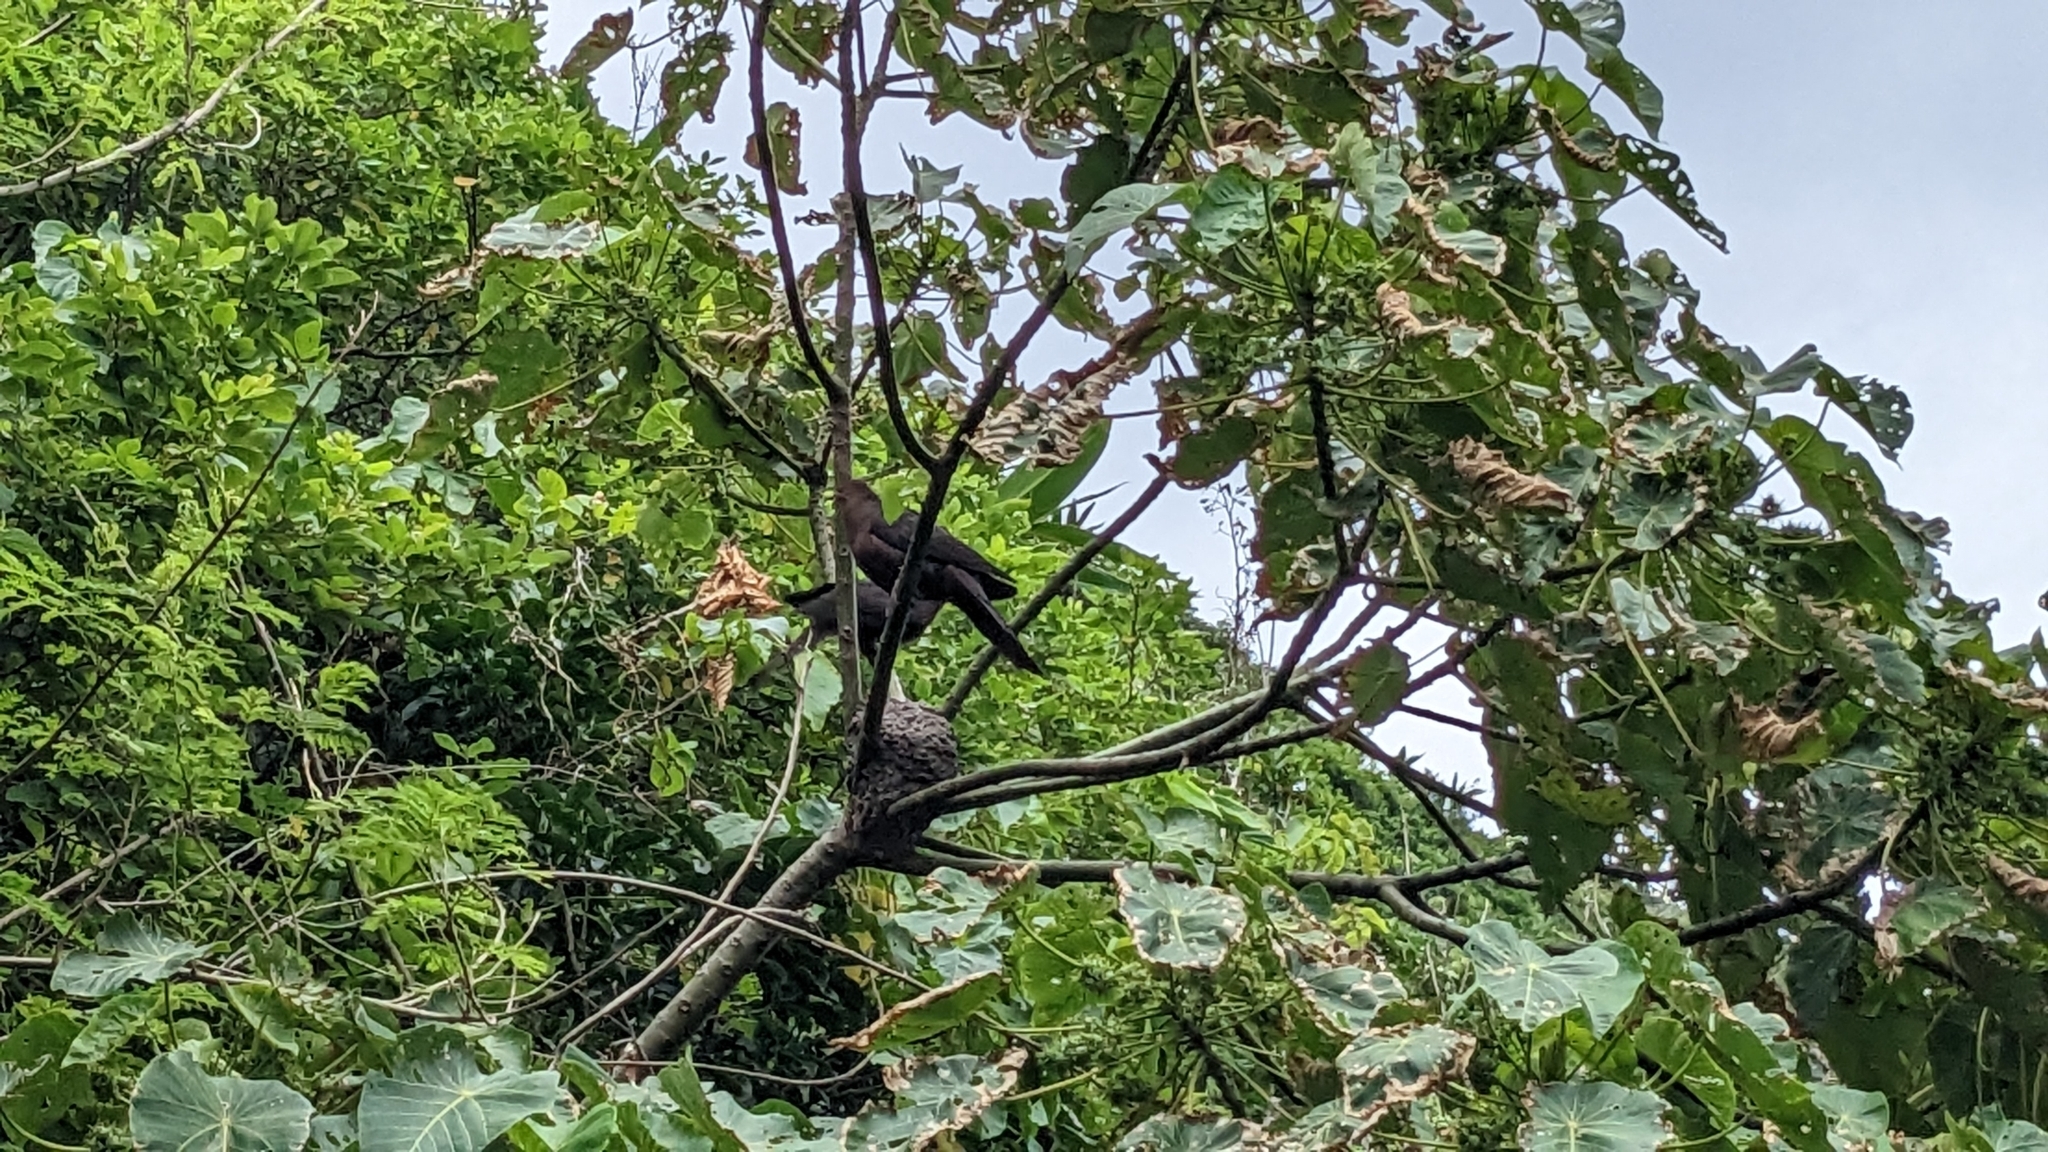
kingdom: Animalia
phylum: Chordata
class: Aves
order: Columbiformes
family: Columbidae
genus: Macropygia
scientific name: Macropygia tenuirostris
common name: Philippine cuckoo-dove
